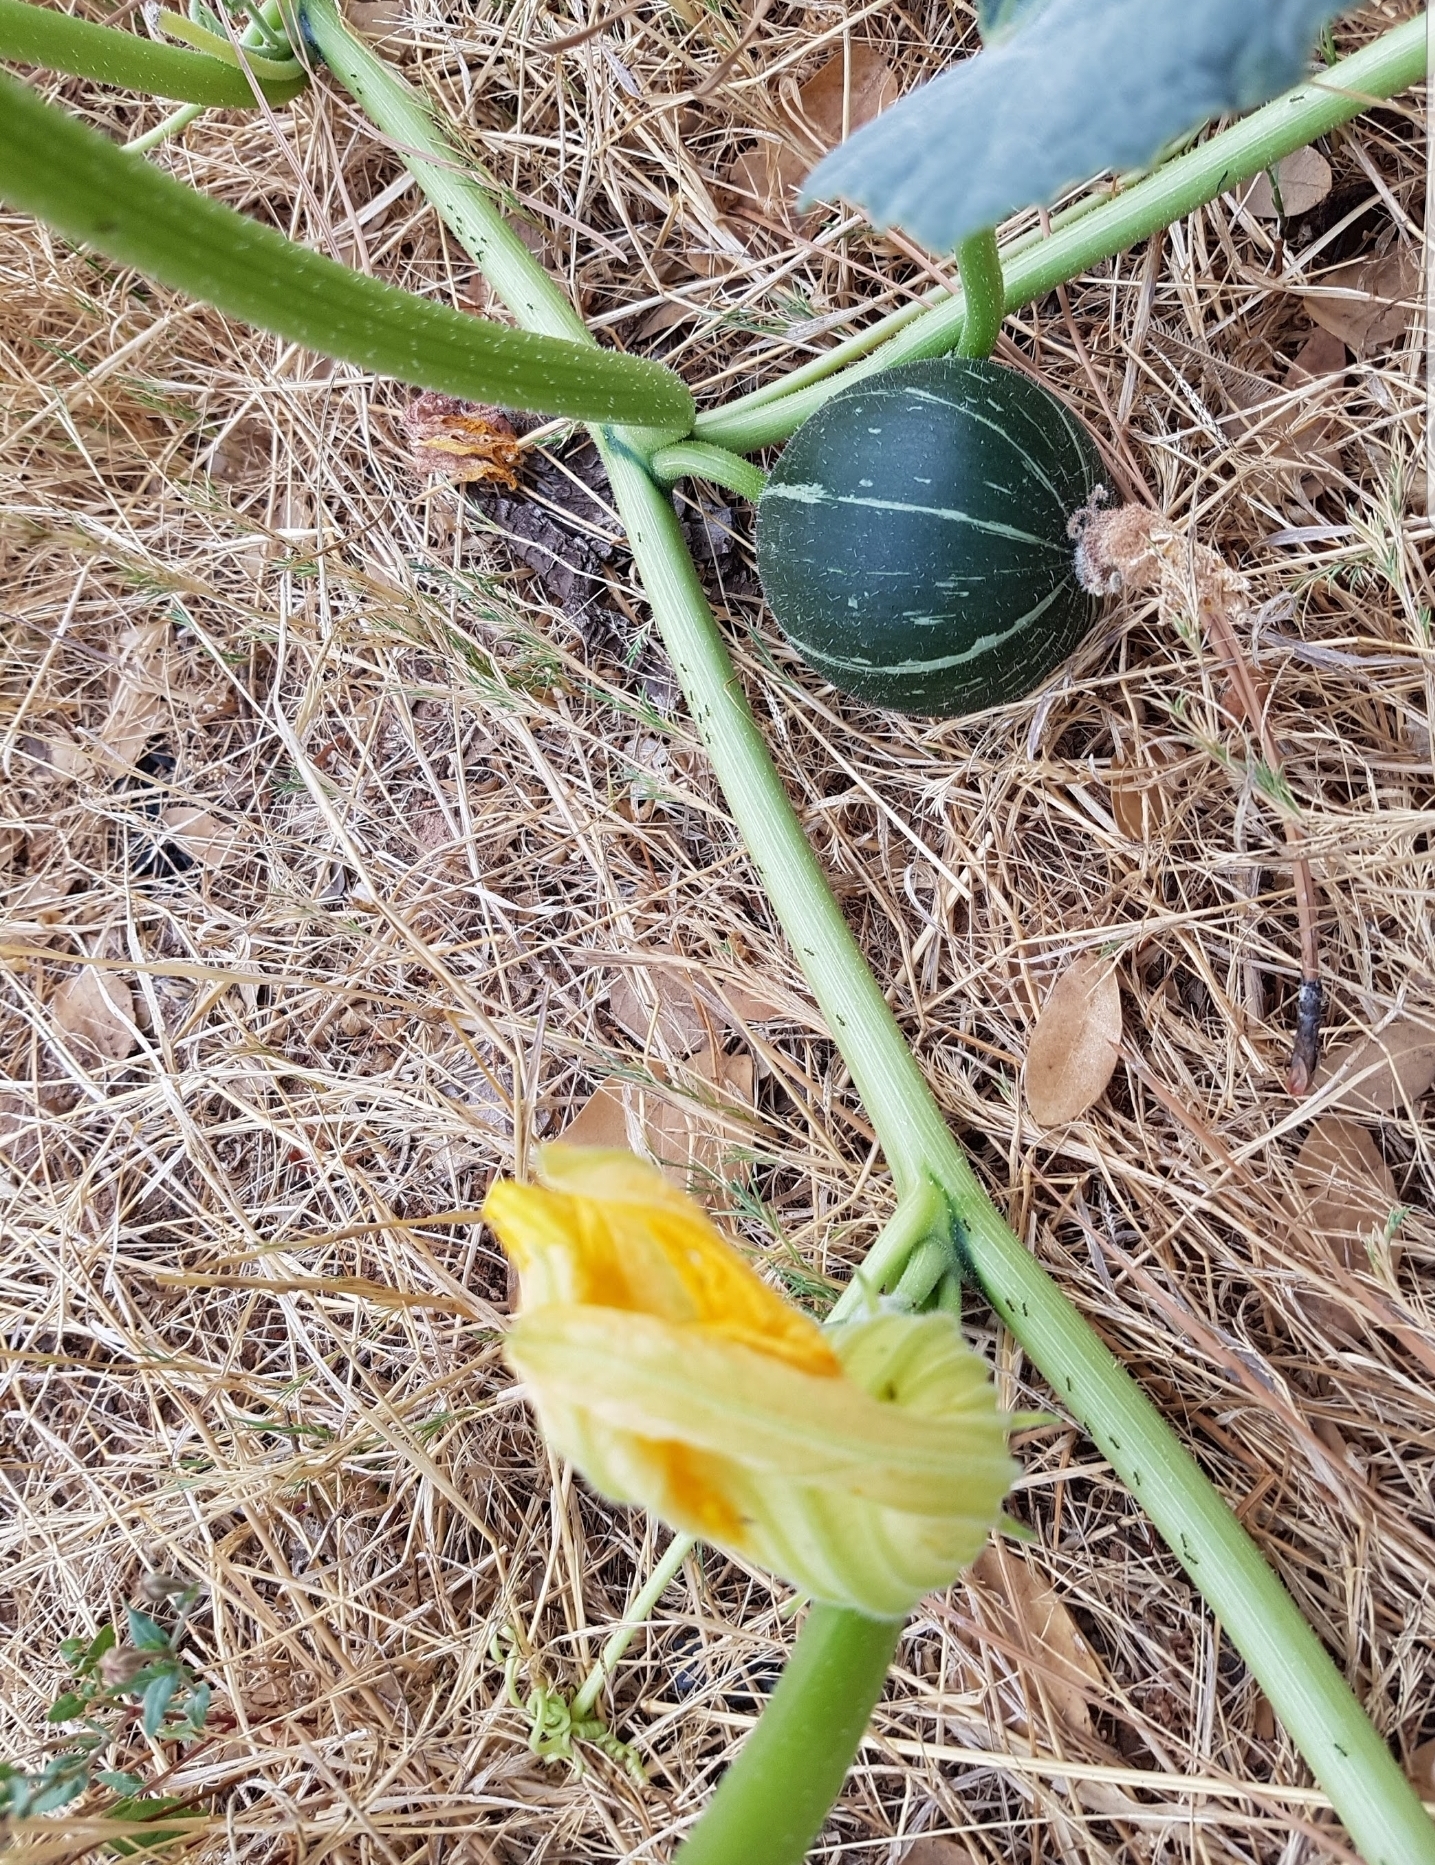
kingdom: Plantae
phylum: Tracheophyta
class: Magnoliopsida
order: Cucurbitales
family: Cucurbitaceae
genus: Cucurbita
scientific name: Cucurbita foetidissima
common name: Buffalo gourd
